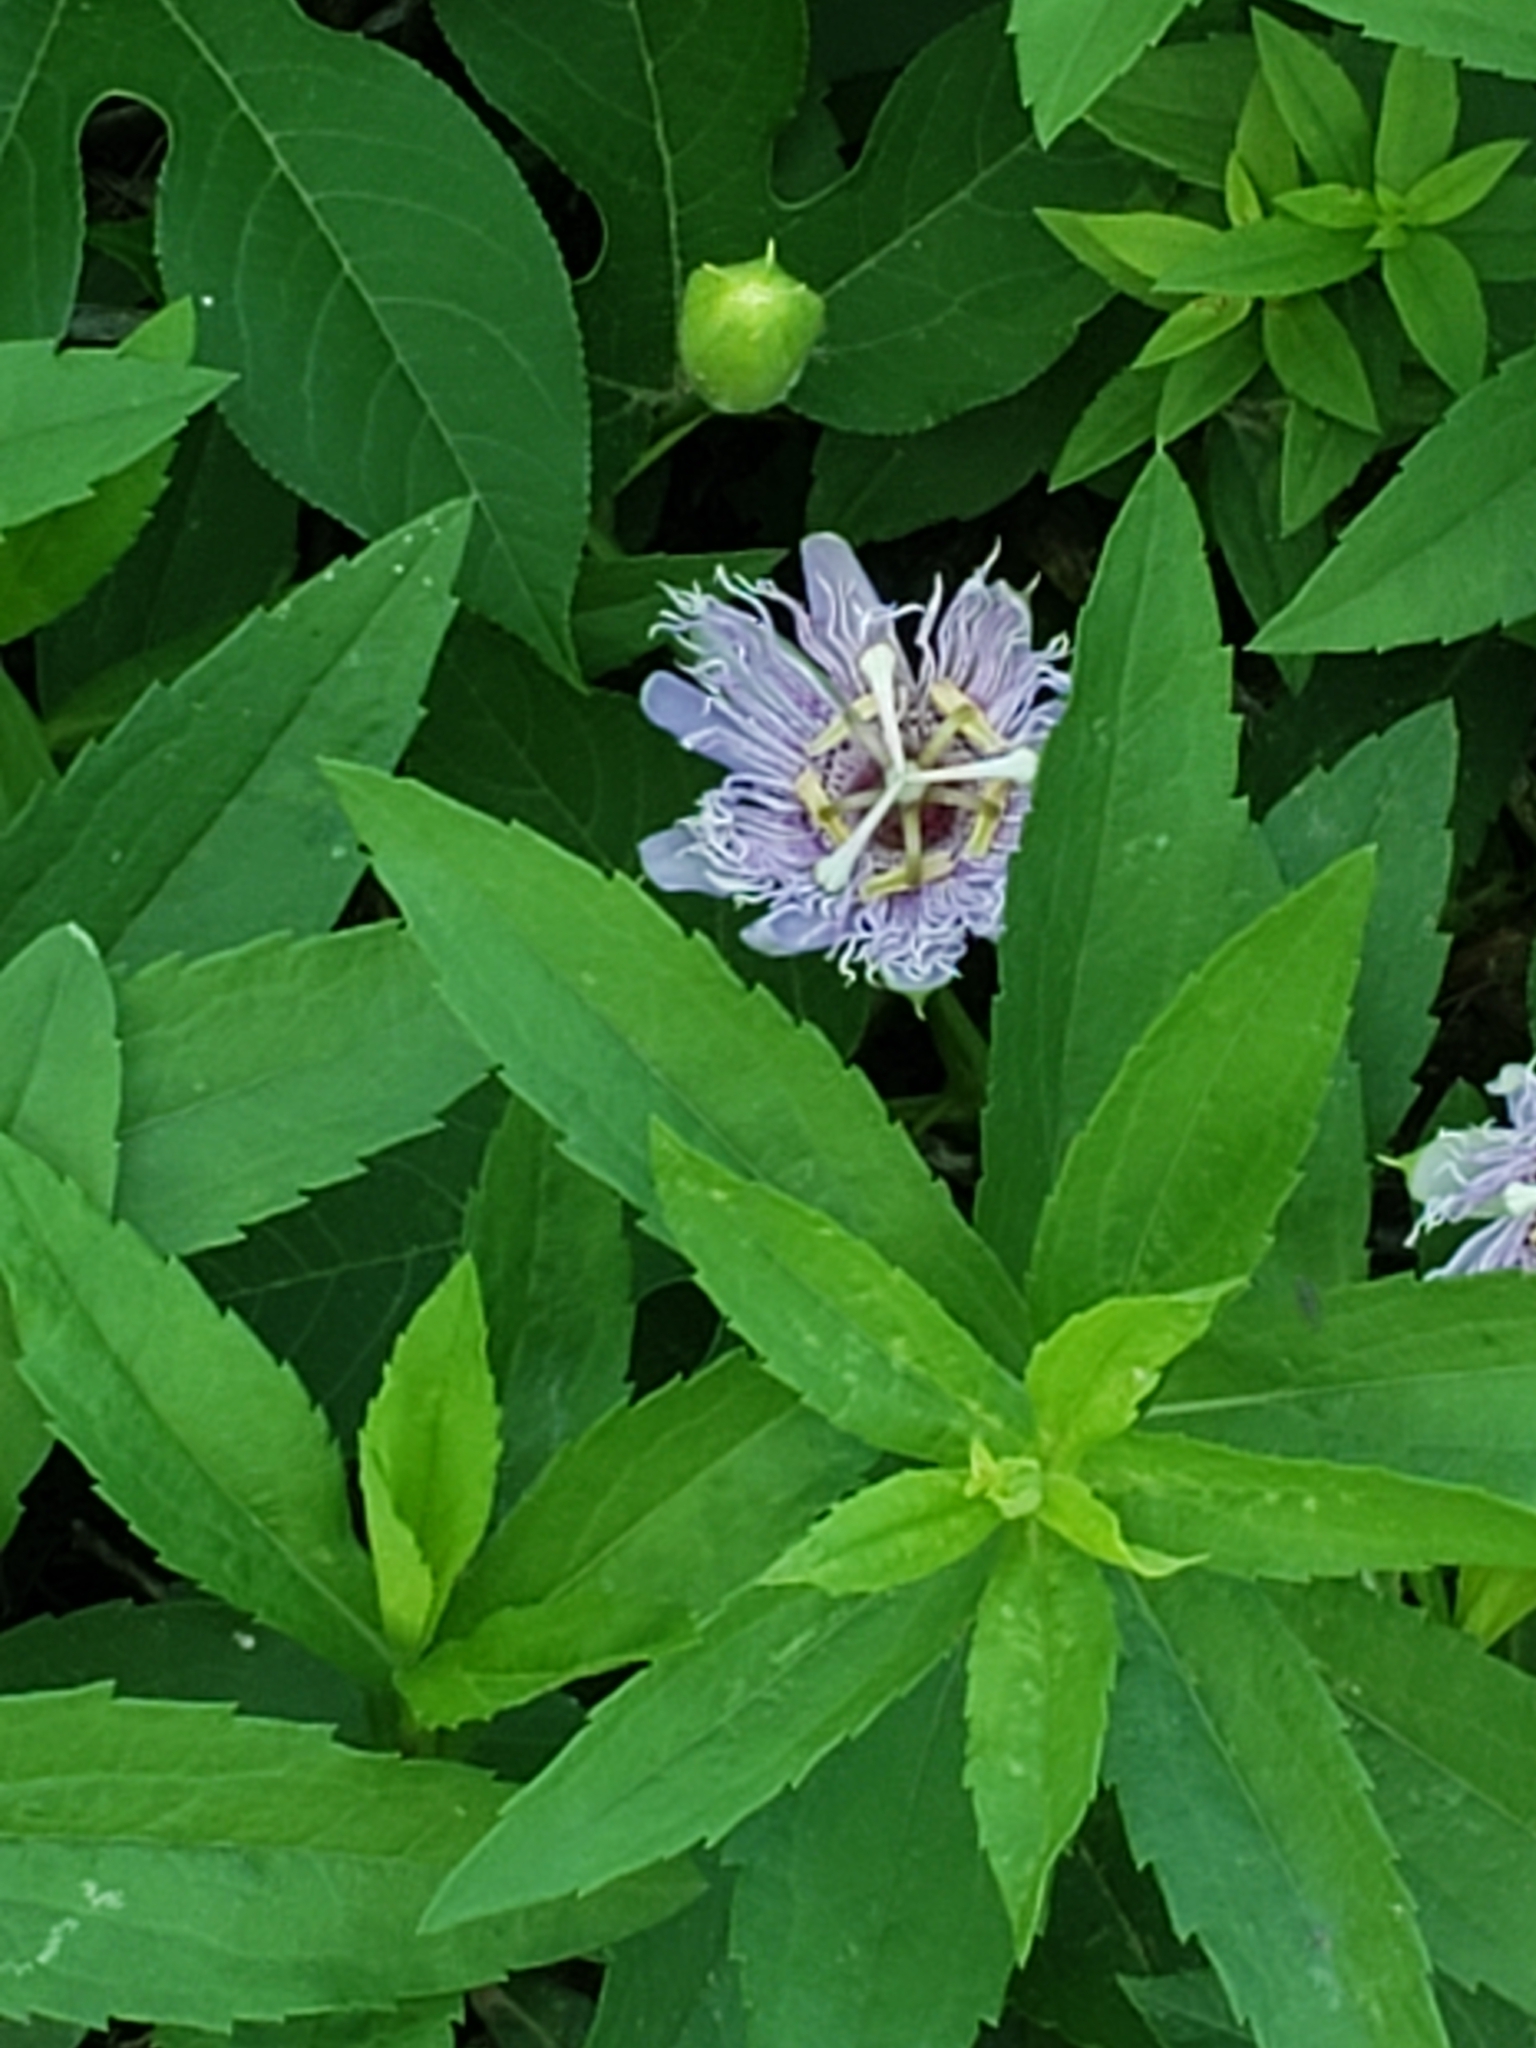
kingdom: Plantae
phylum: Tracheophyta
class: Magnoliopsida
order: Malpighiales
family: Passifloraceae
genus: Passiflora
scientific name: Passiflora incarnata
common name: Apricot-vine
